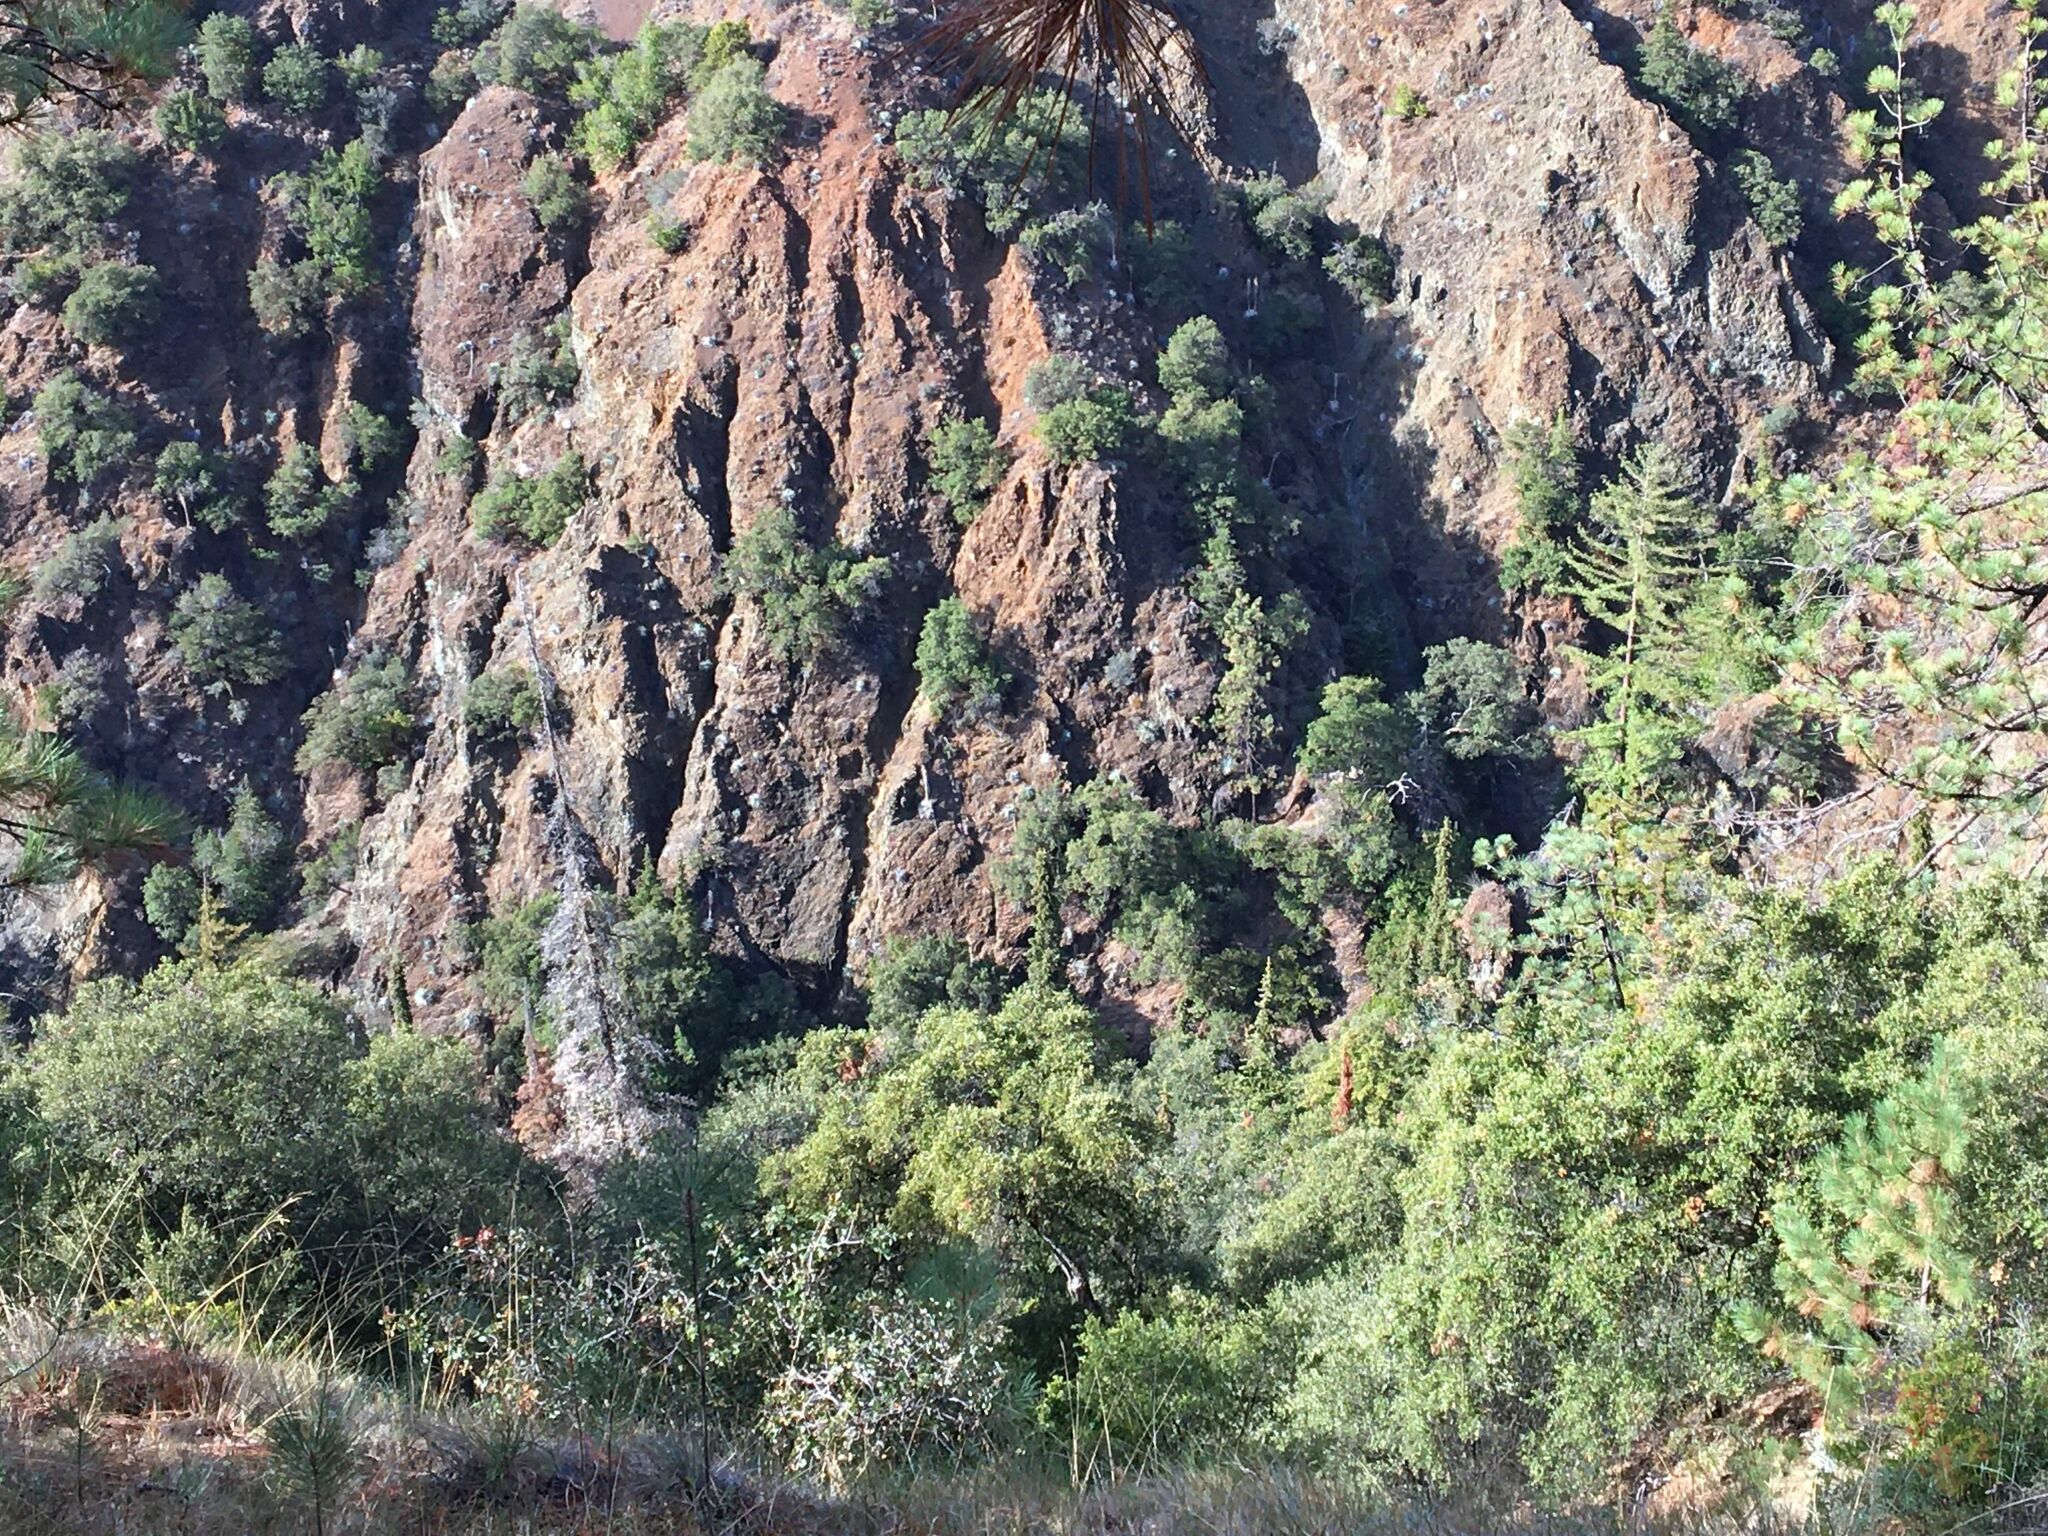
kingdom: Plantae
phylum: Tracheophyta
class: Pinopsida
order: Pinales
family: Pinaceae
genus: Abies
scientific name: Abies bracteata
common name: Bristlecone fir
